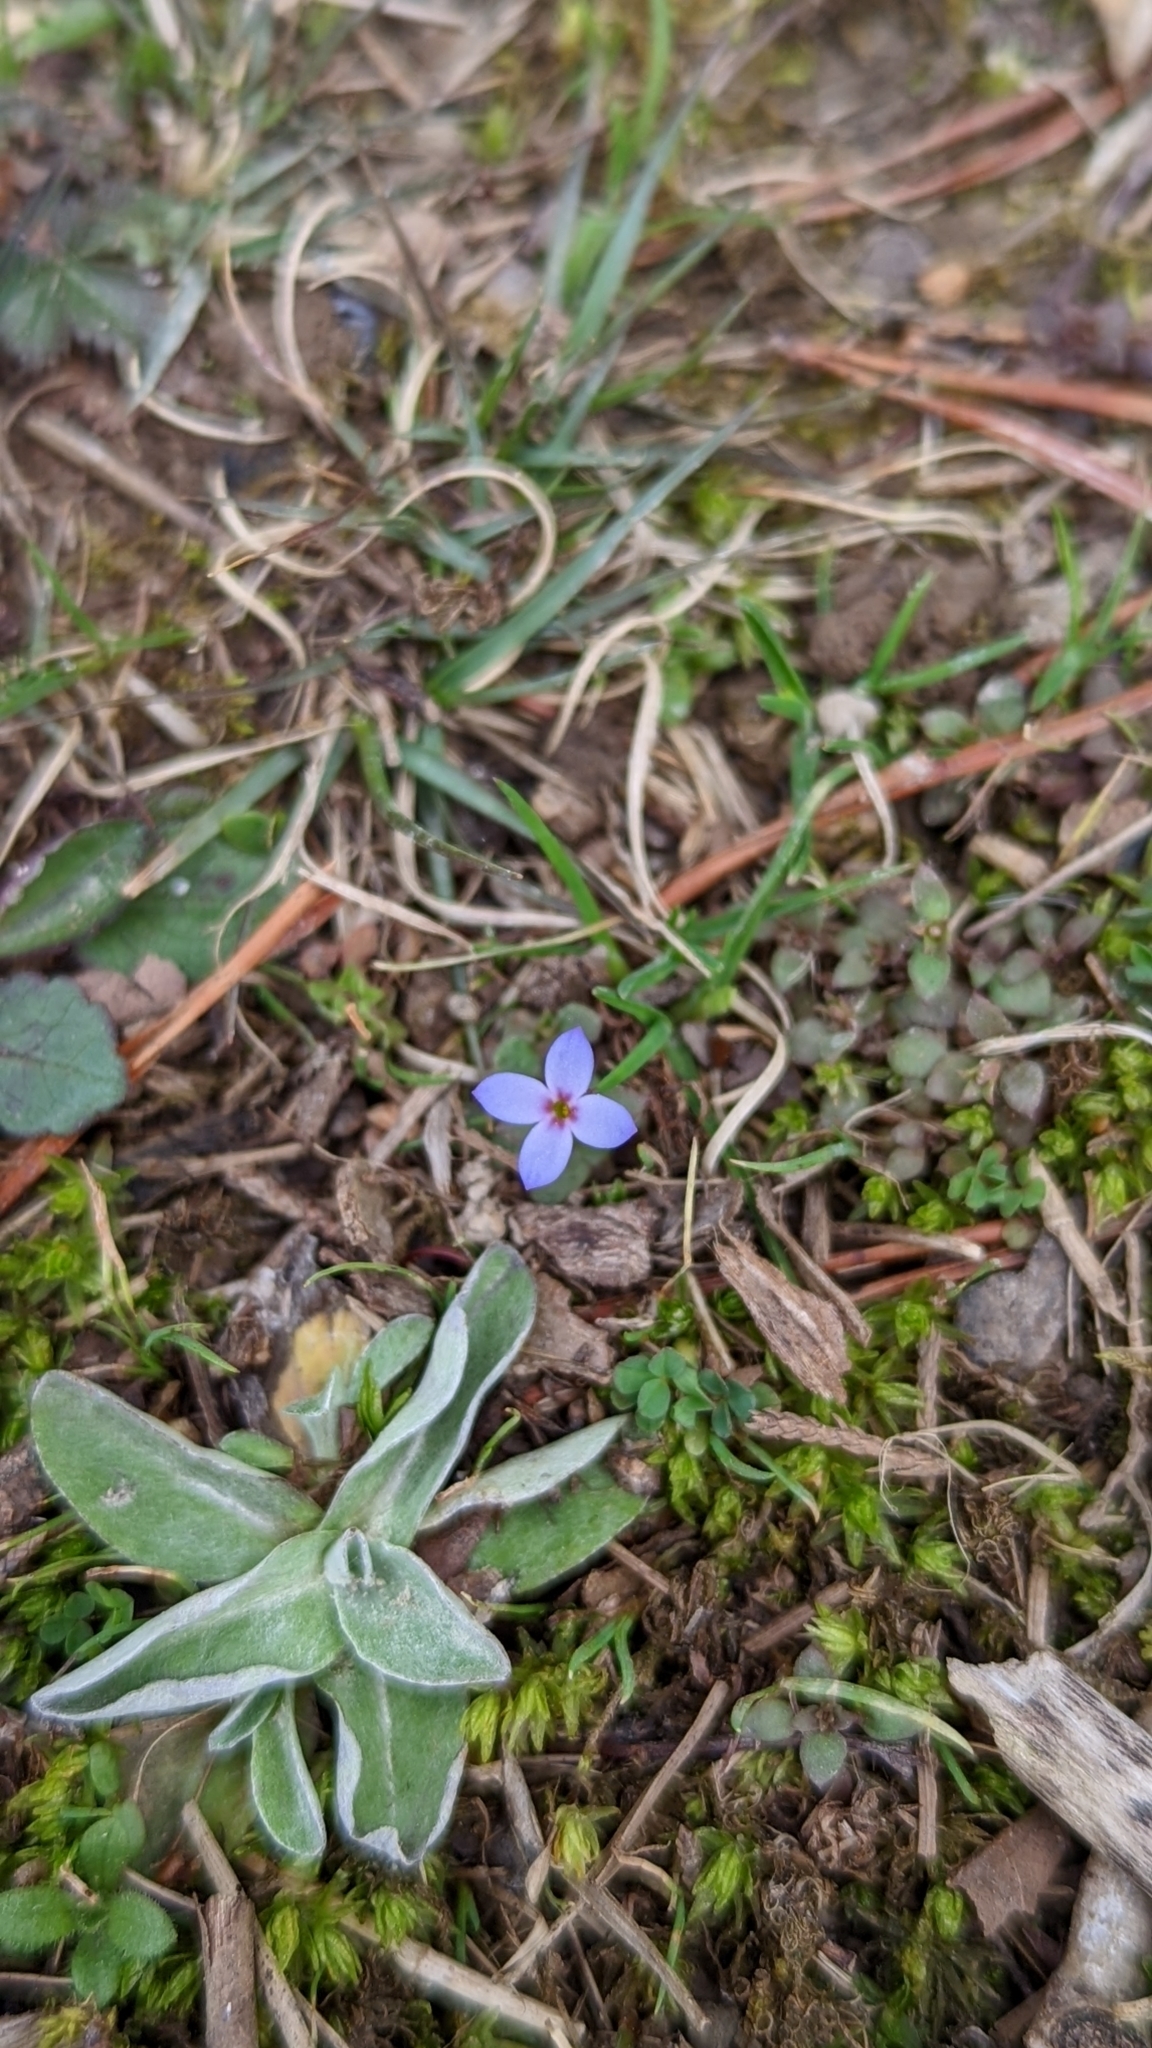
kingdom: Plantae
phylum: Tracheophyta
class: Magnoliopsida
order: Gentianales
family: Rubiaceae
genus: Houstonia
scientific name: Houstonia pusilla
